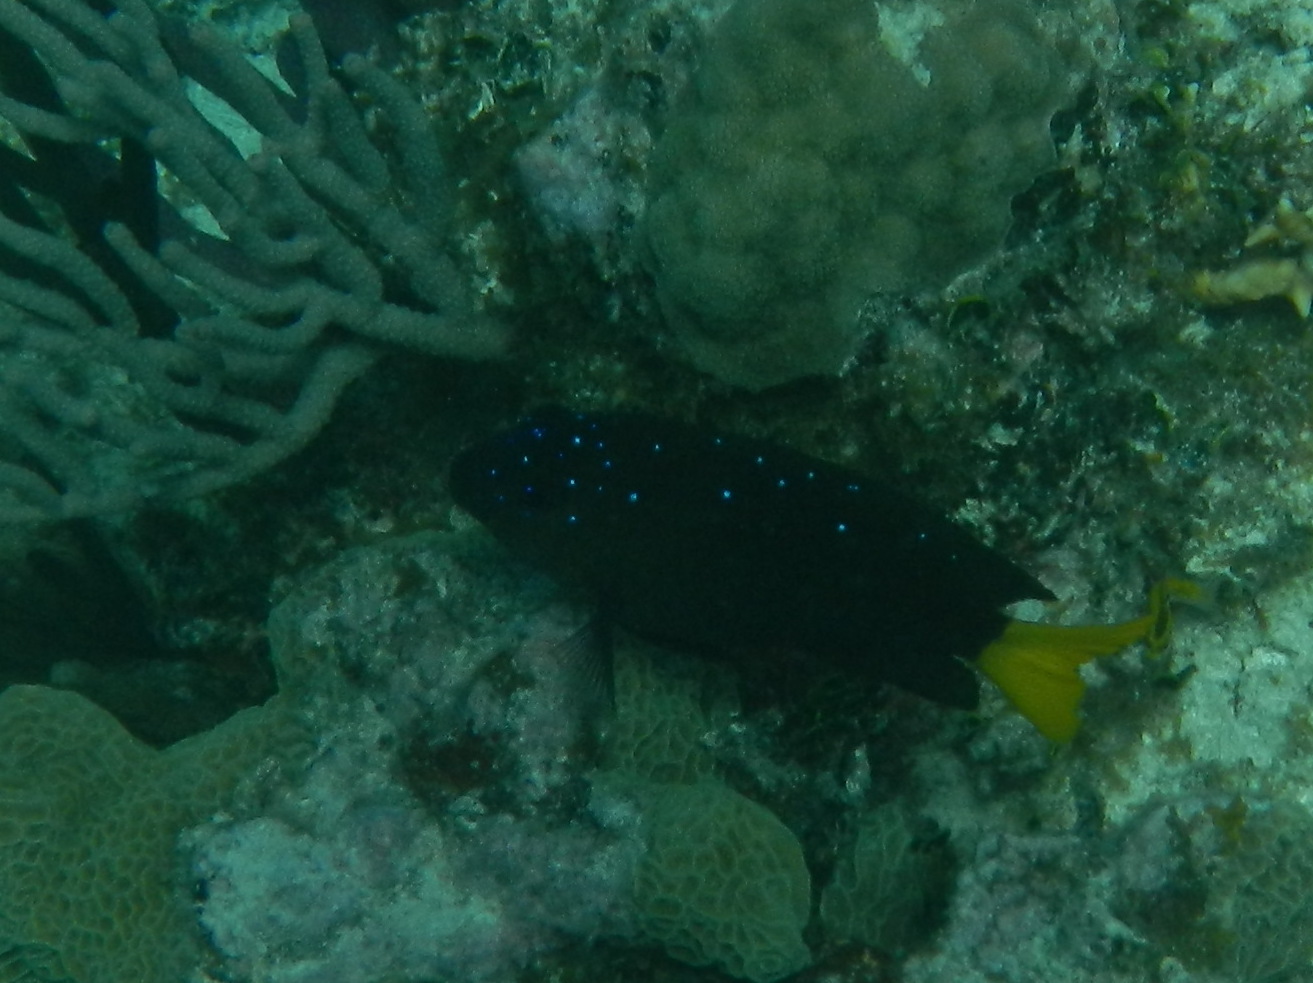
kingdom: Animalia
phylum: Chordata
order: Perciformes
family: Pomacentridae
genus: Microspathodon
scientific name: Microspathodon chrysurus
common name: Yellowtail damselfish
